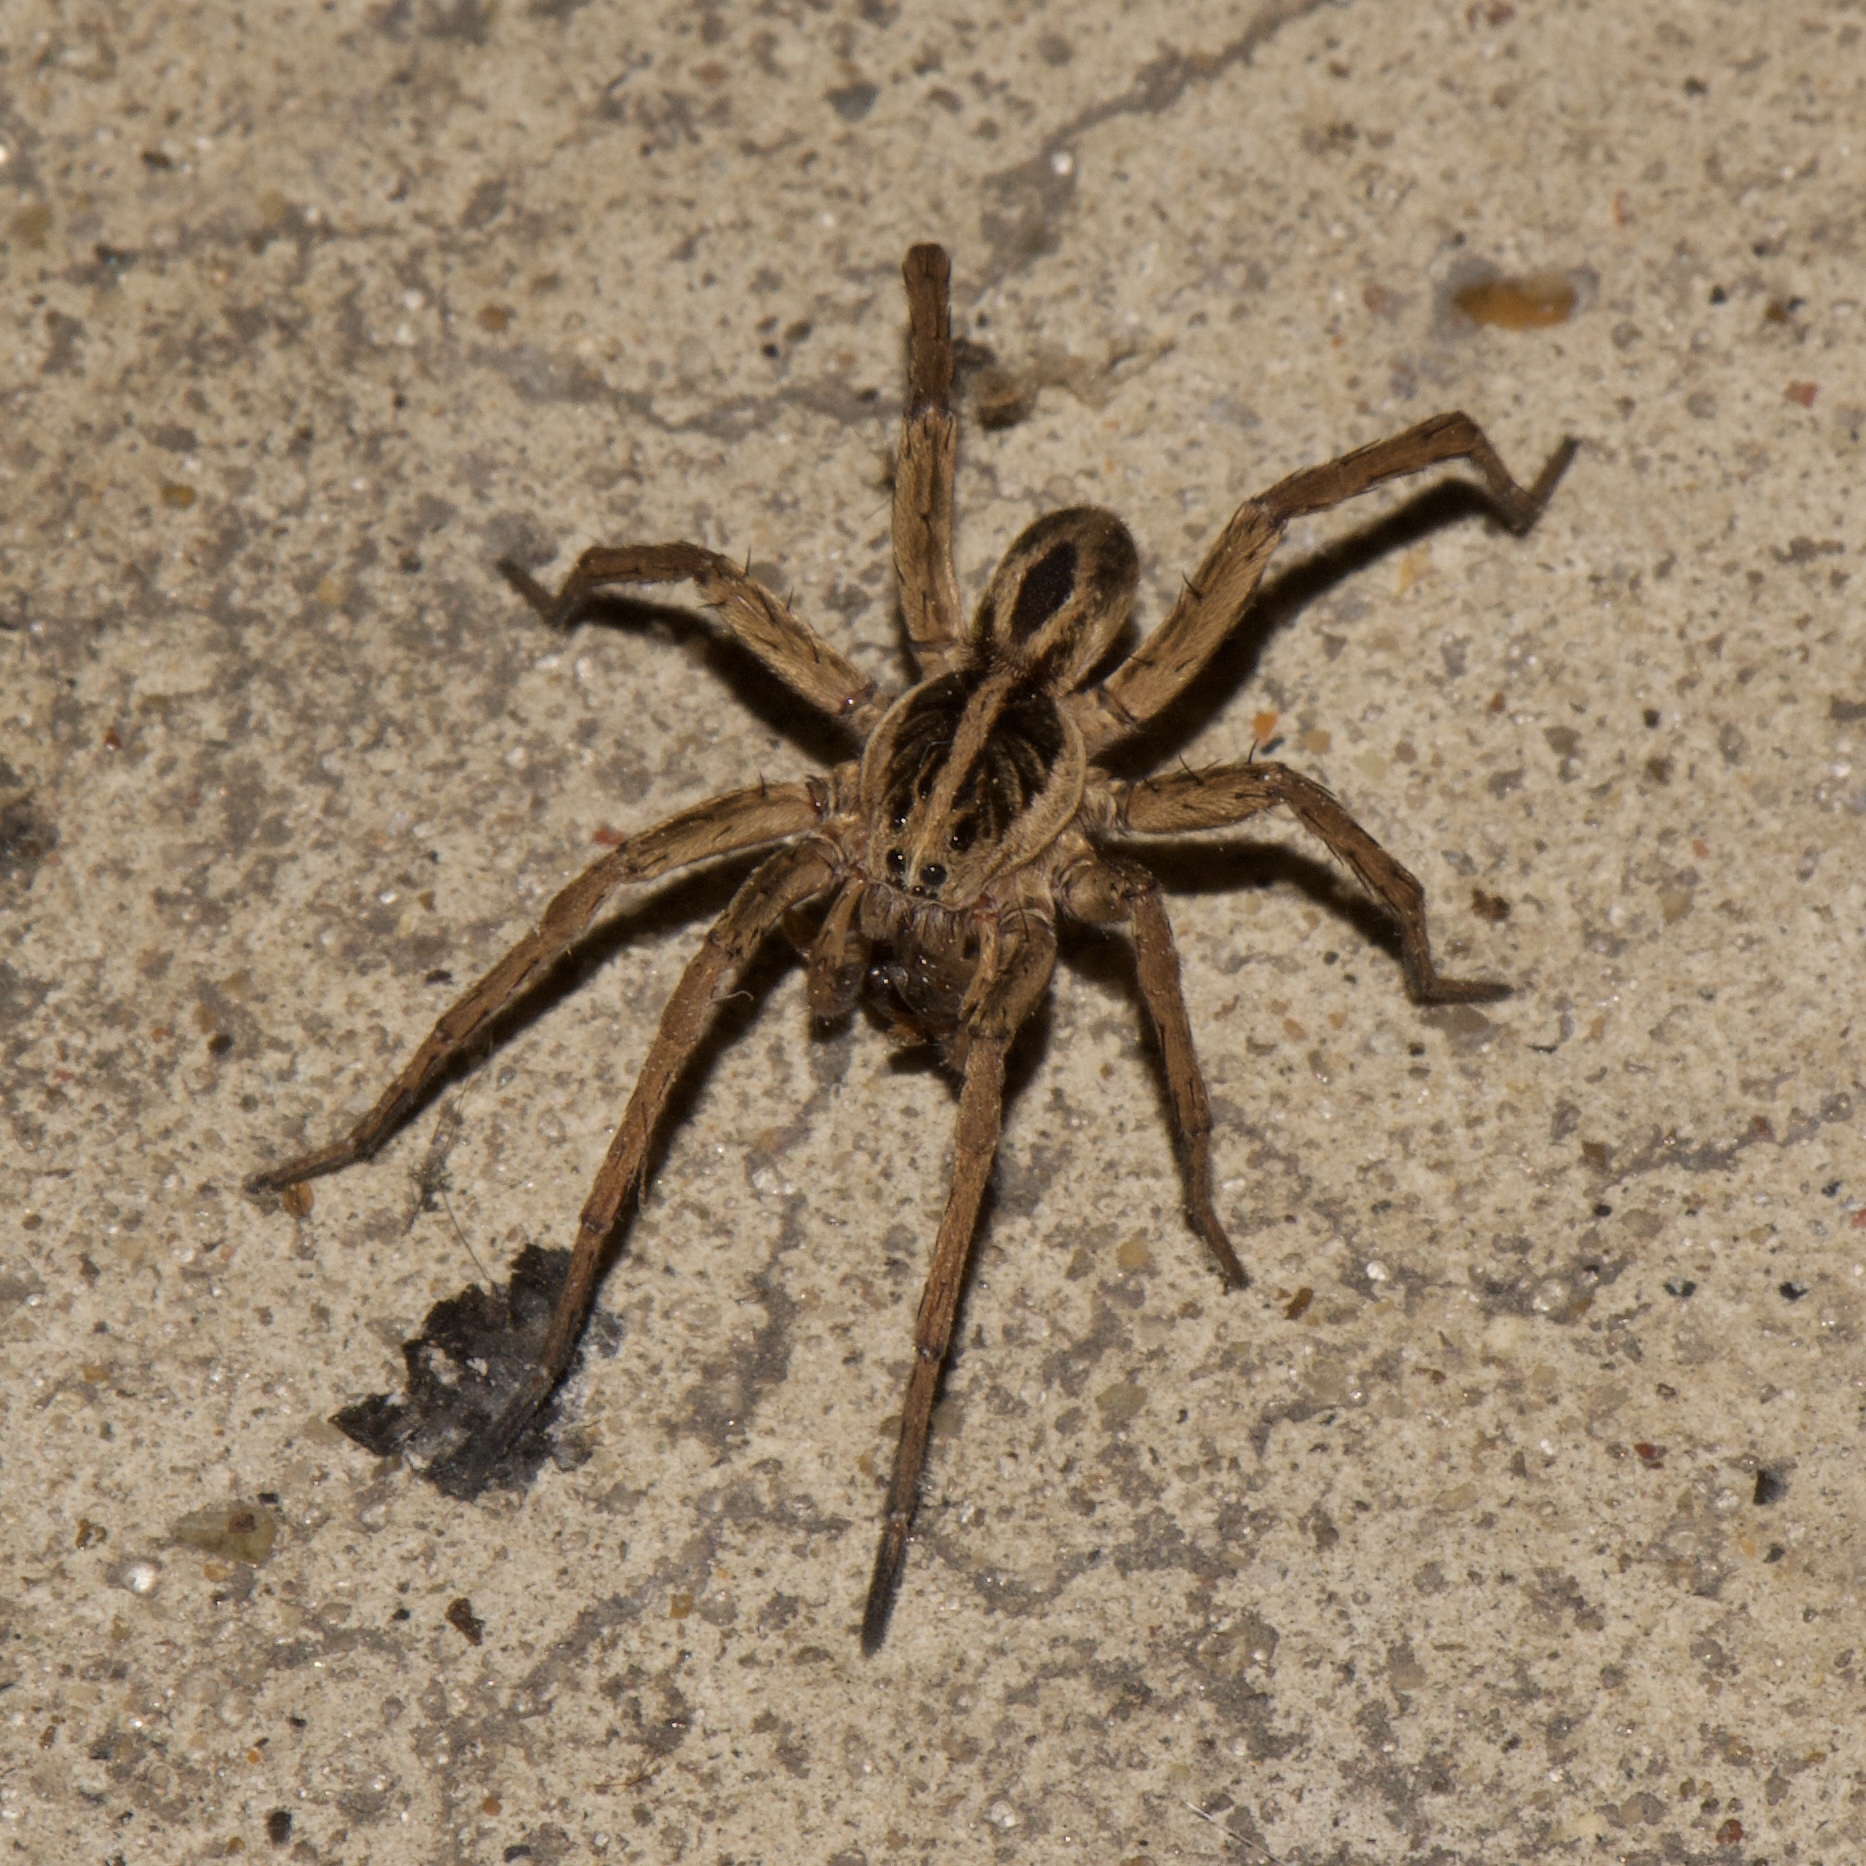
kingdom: Animalia
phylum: Arthropoda
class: Arachnida
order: Araneae
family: Lycosidae
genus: Tigrosa
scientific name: Tigrosa annexa
